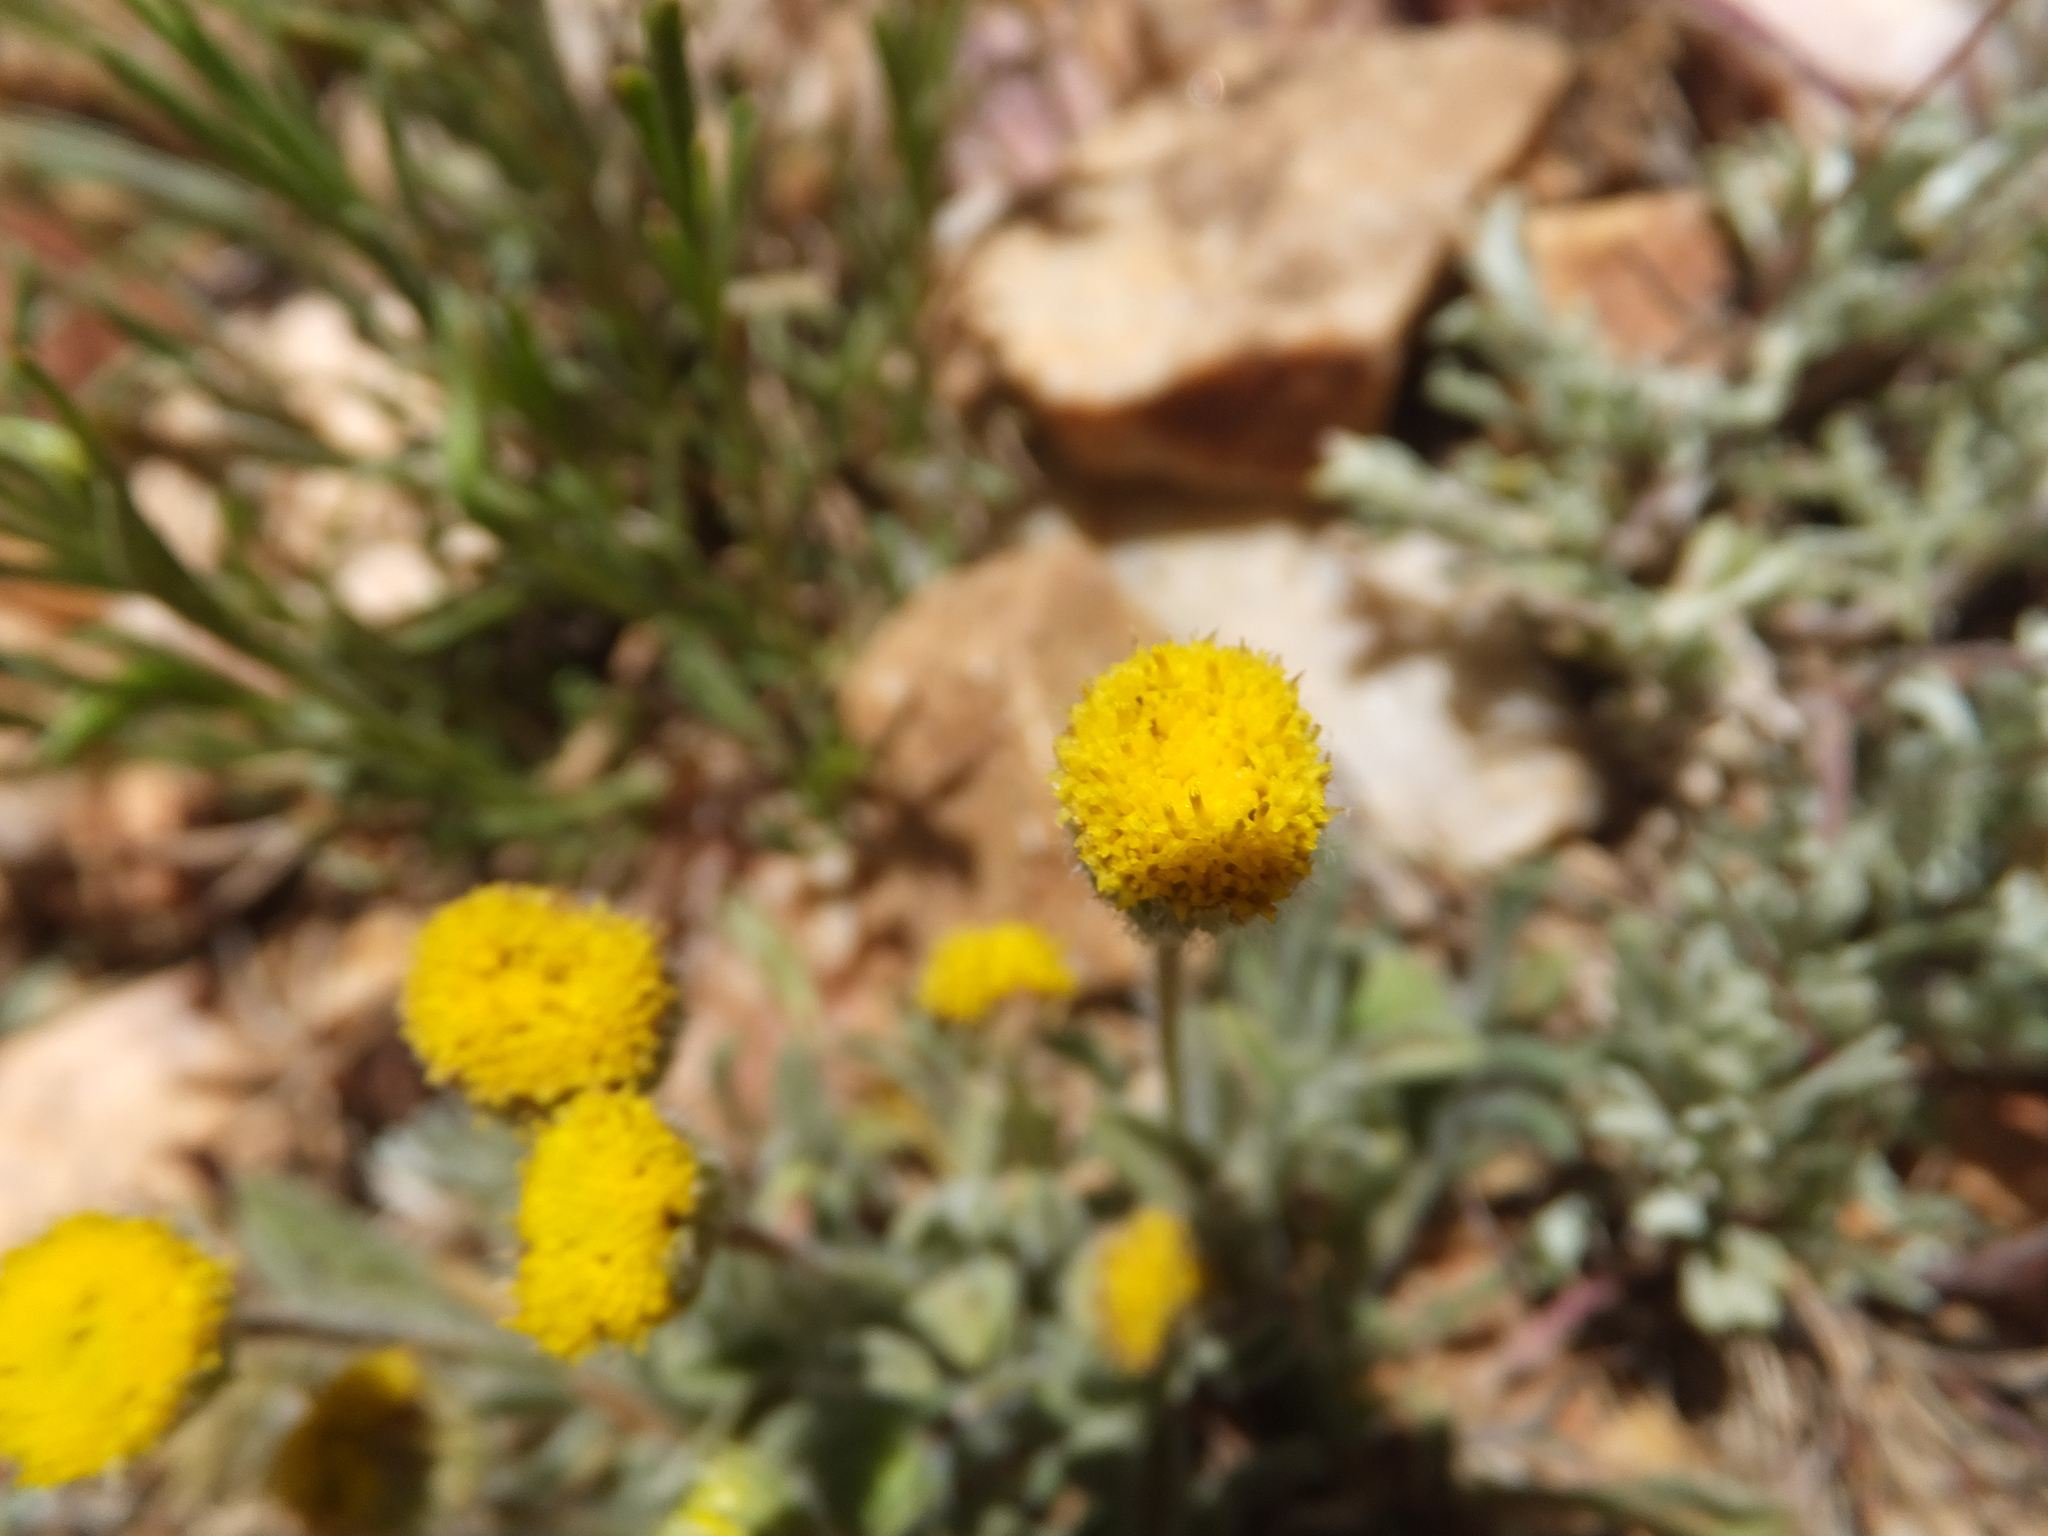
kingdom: Plantae
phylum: Tracheophyta
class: Magnoliopsida
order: Asterales
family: Asteraceae
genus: Erigeron
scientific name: Erigeron aphanactis
